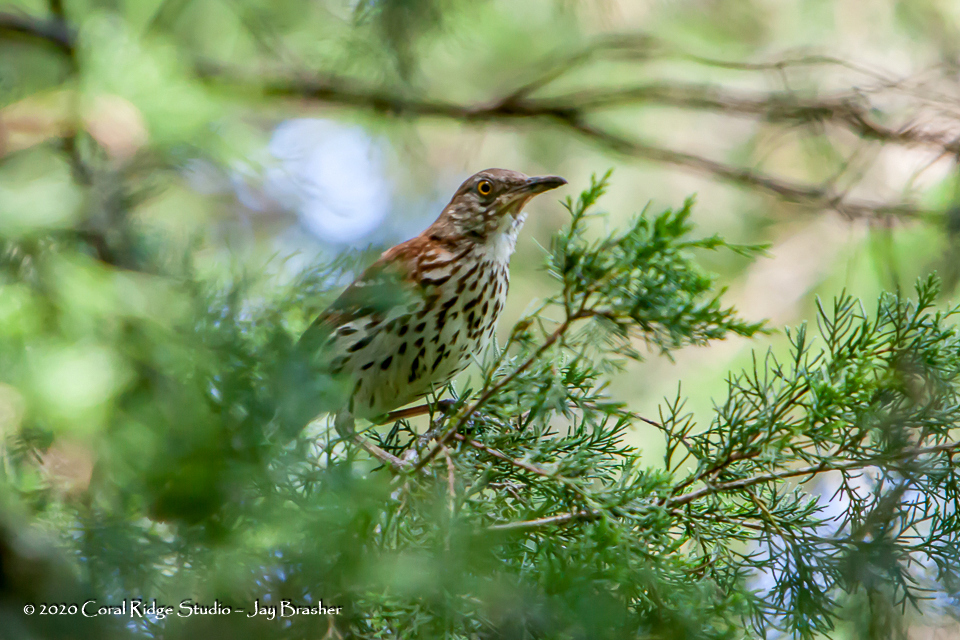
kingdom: Animalia
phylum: Chordata
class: Aves
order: Passeriformes
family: Mimidae
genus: Toxostoma
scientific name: Toxostoma rufum
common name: Brown thrasher
